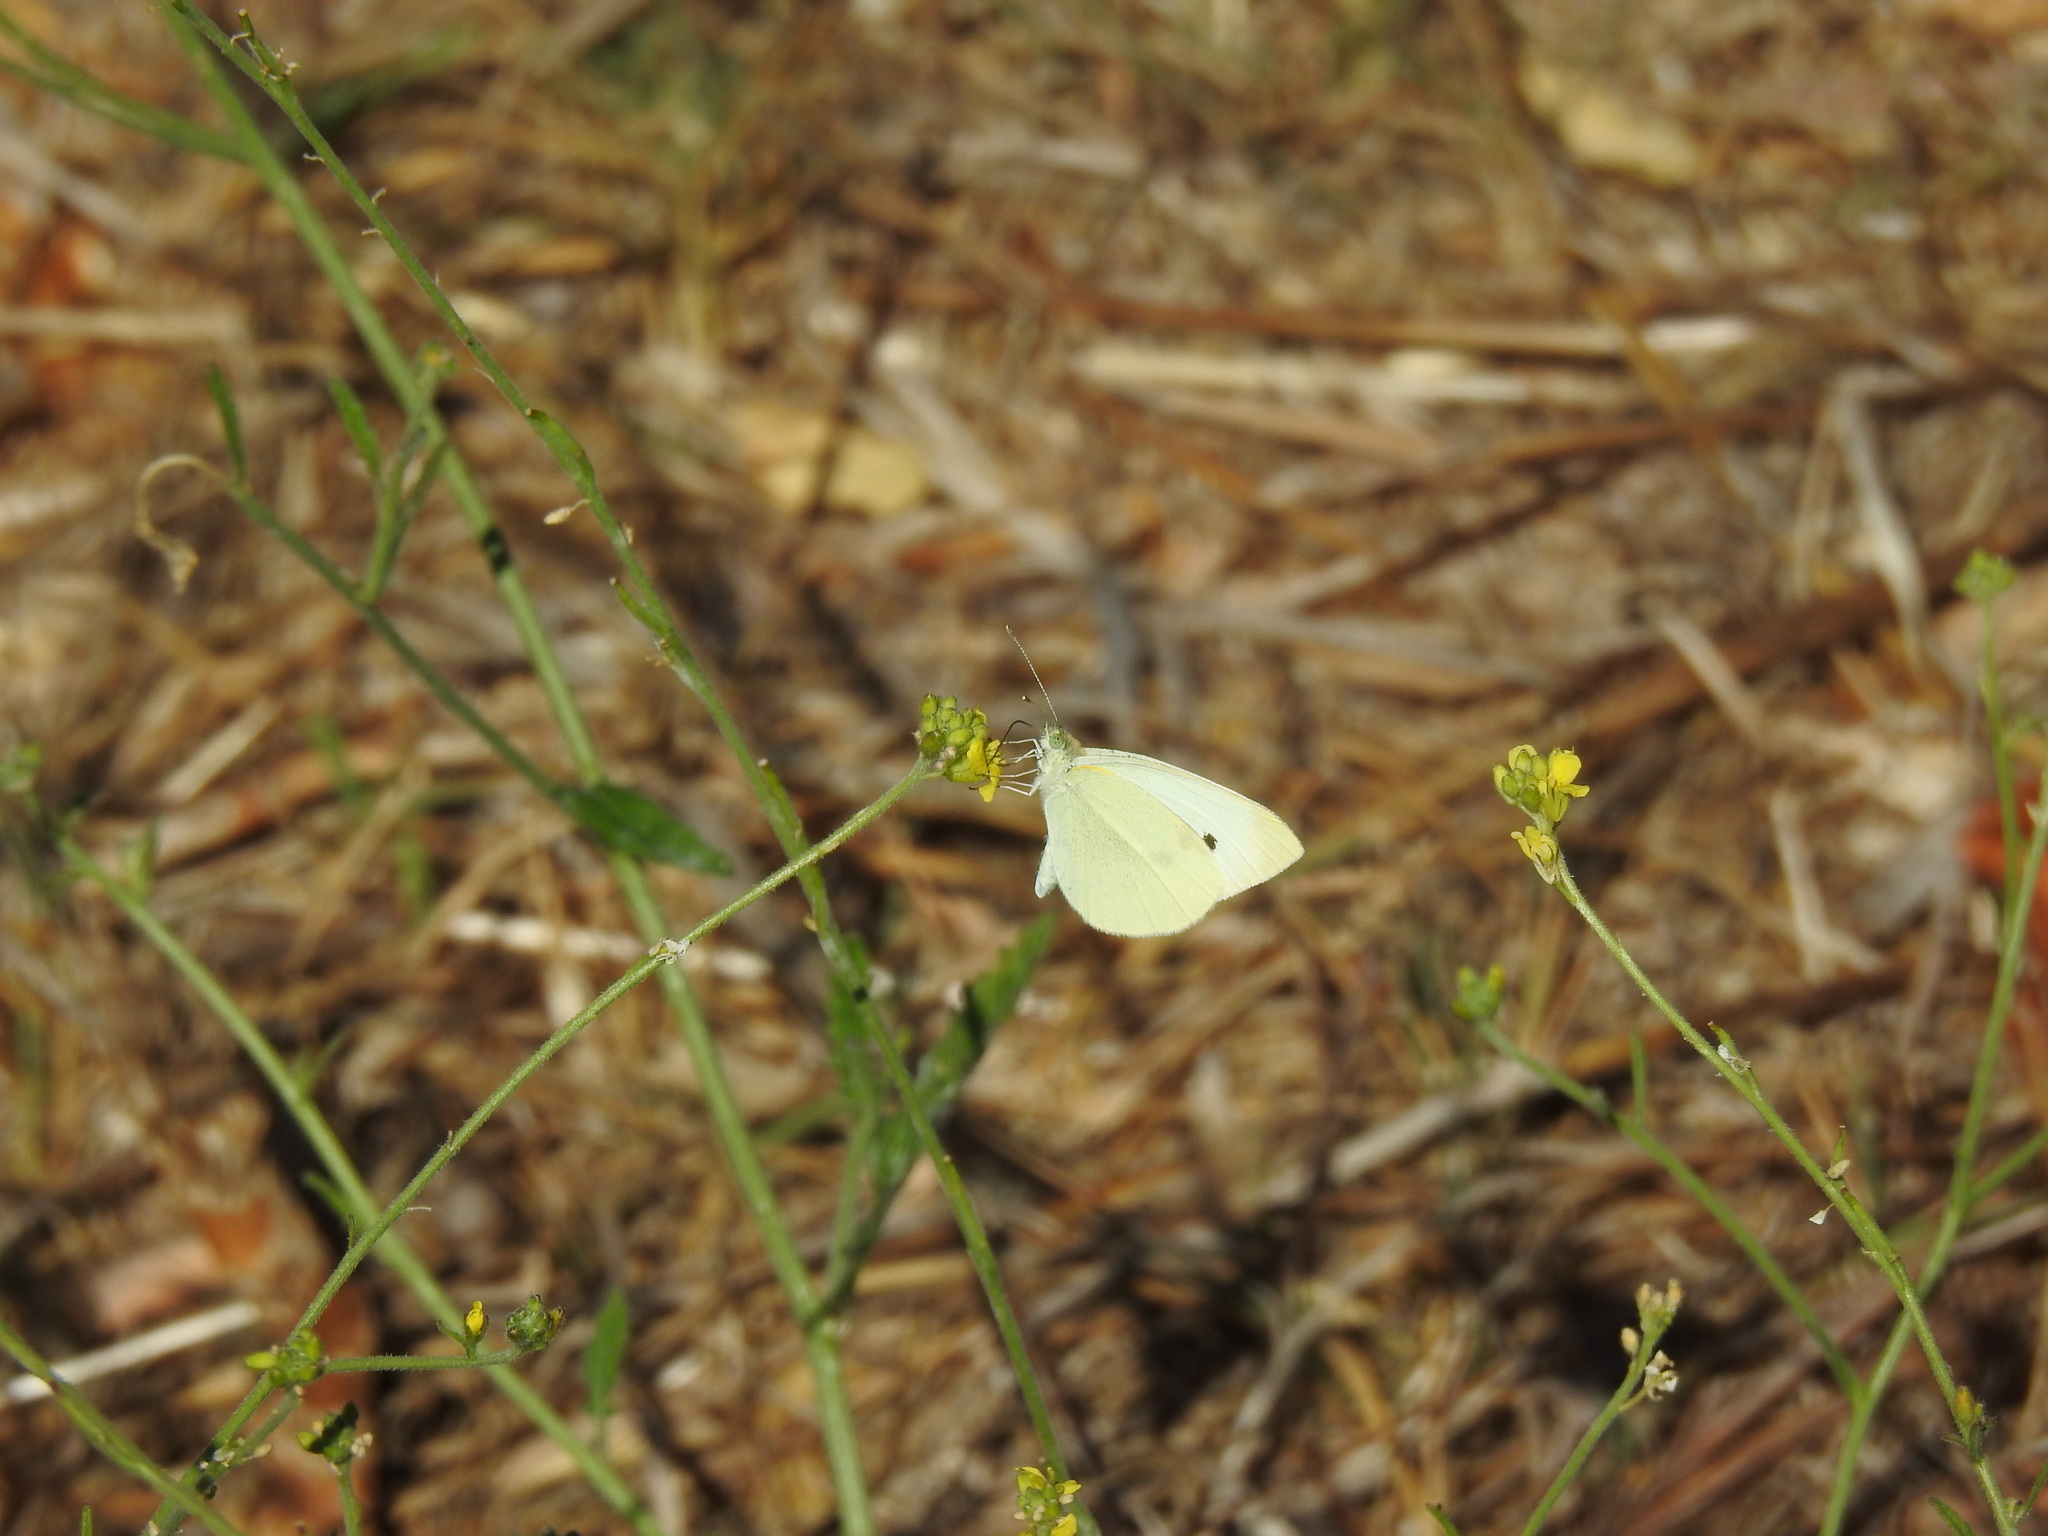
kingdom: Animalia
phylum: Arthropoda
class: Insecta
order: Lepidoptera
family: Pieridae
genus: Pieris
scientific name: Pieris rapae
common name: Small white
